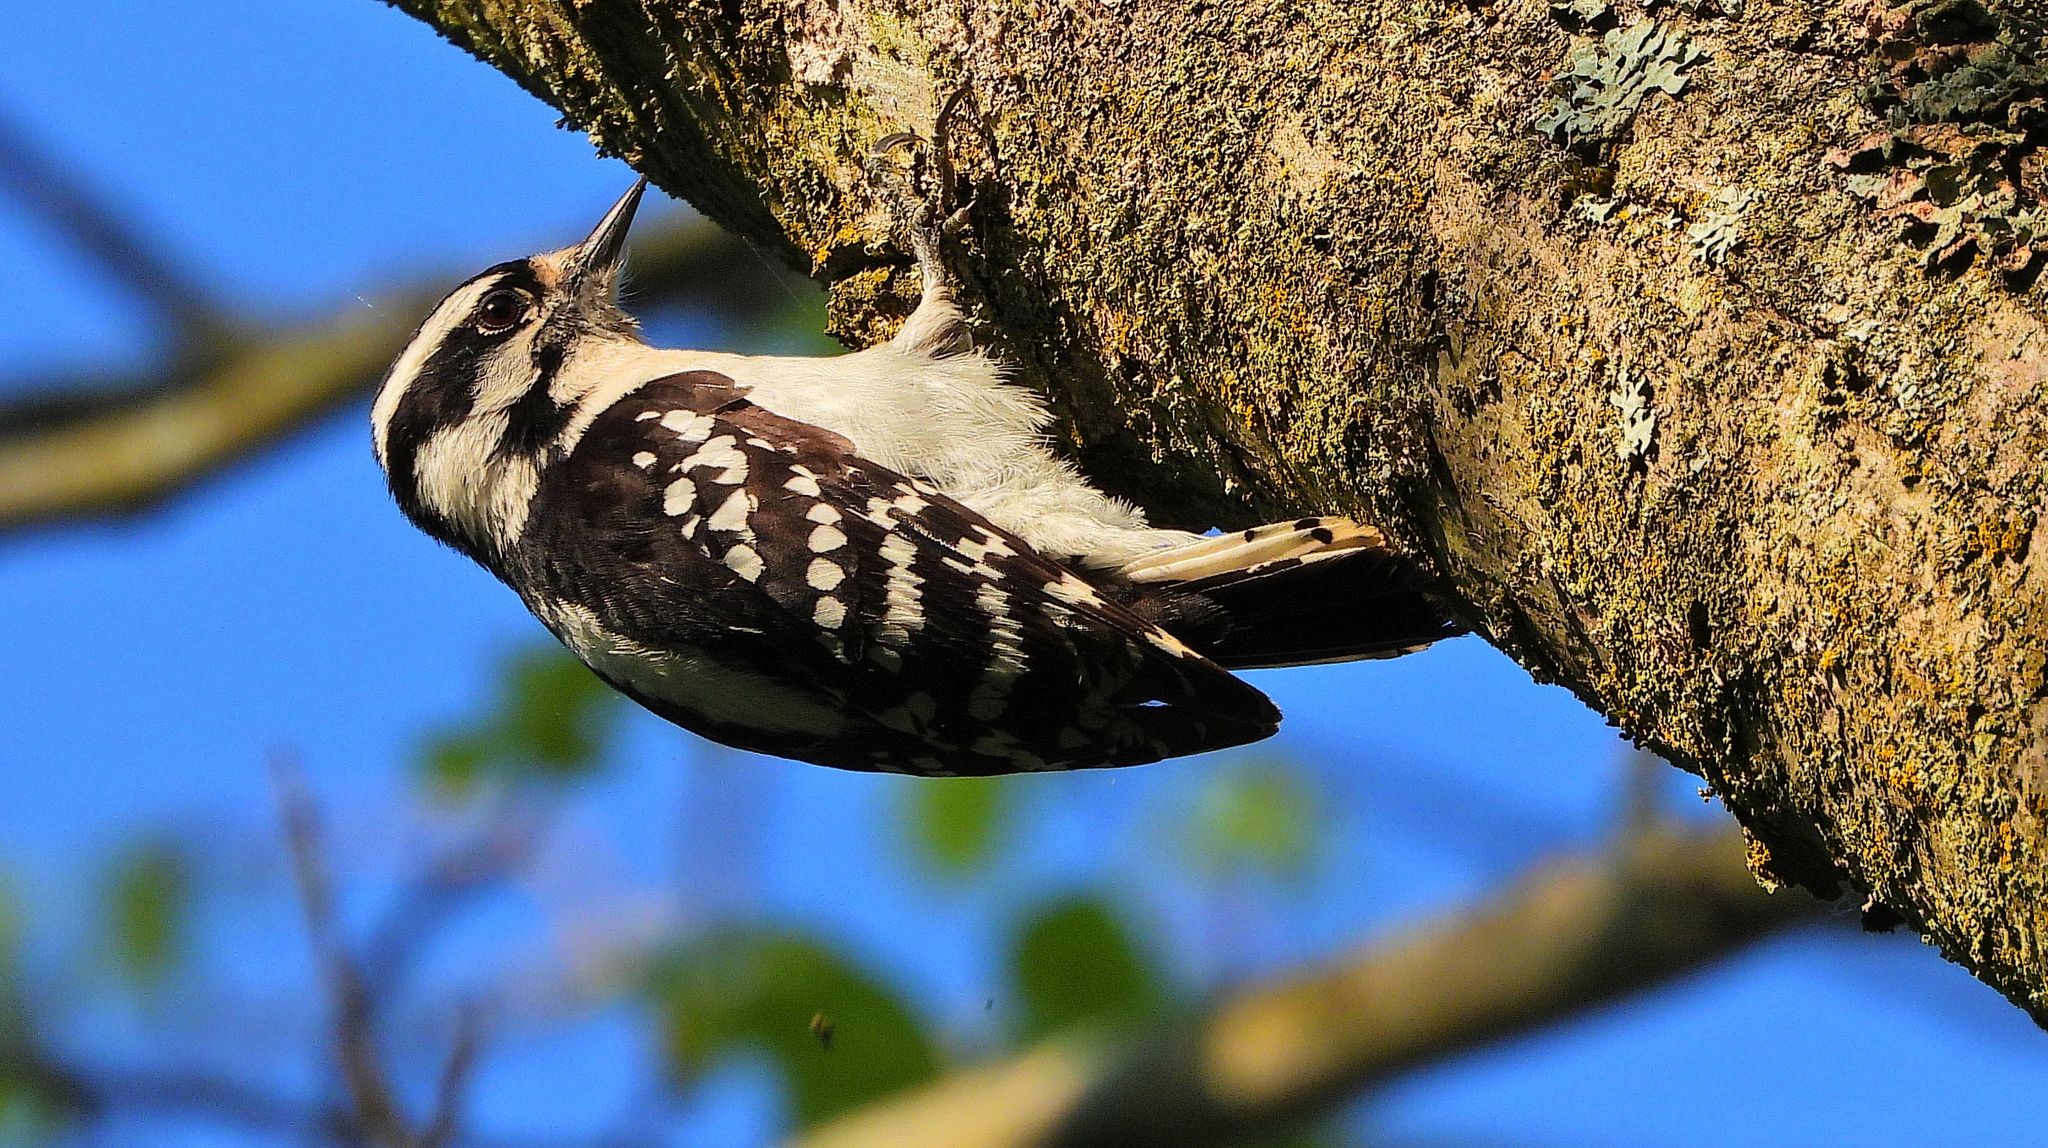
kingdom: Animalia
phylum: Chordata
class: Aves
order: Piciformes
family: Picidae
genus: Dryobates
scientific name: Dryobates pubescens
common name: Downy woodpecker
